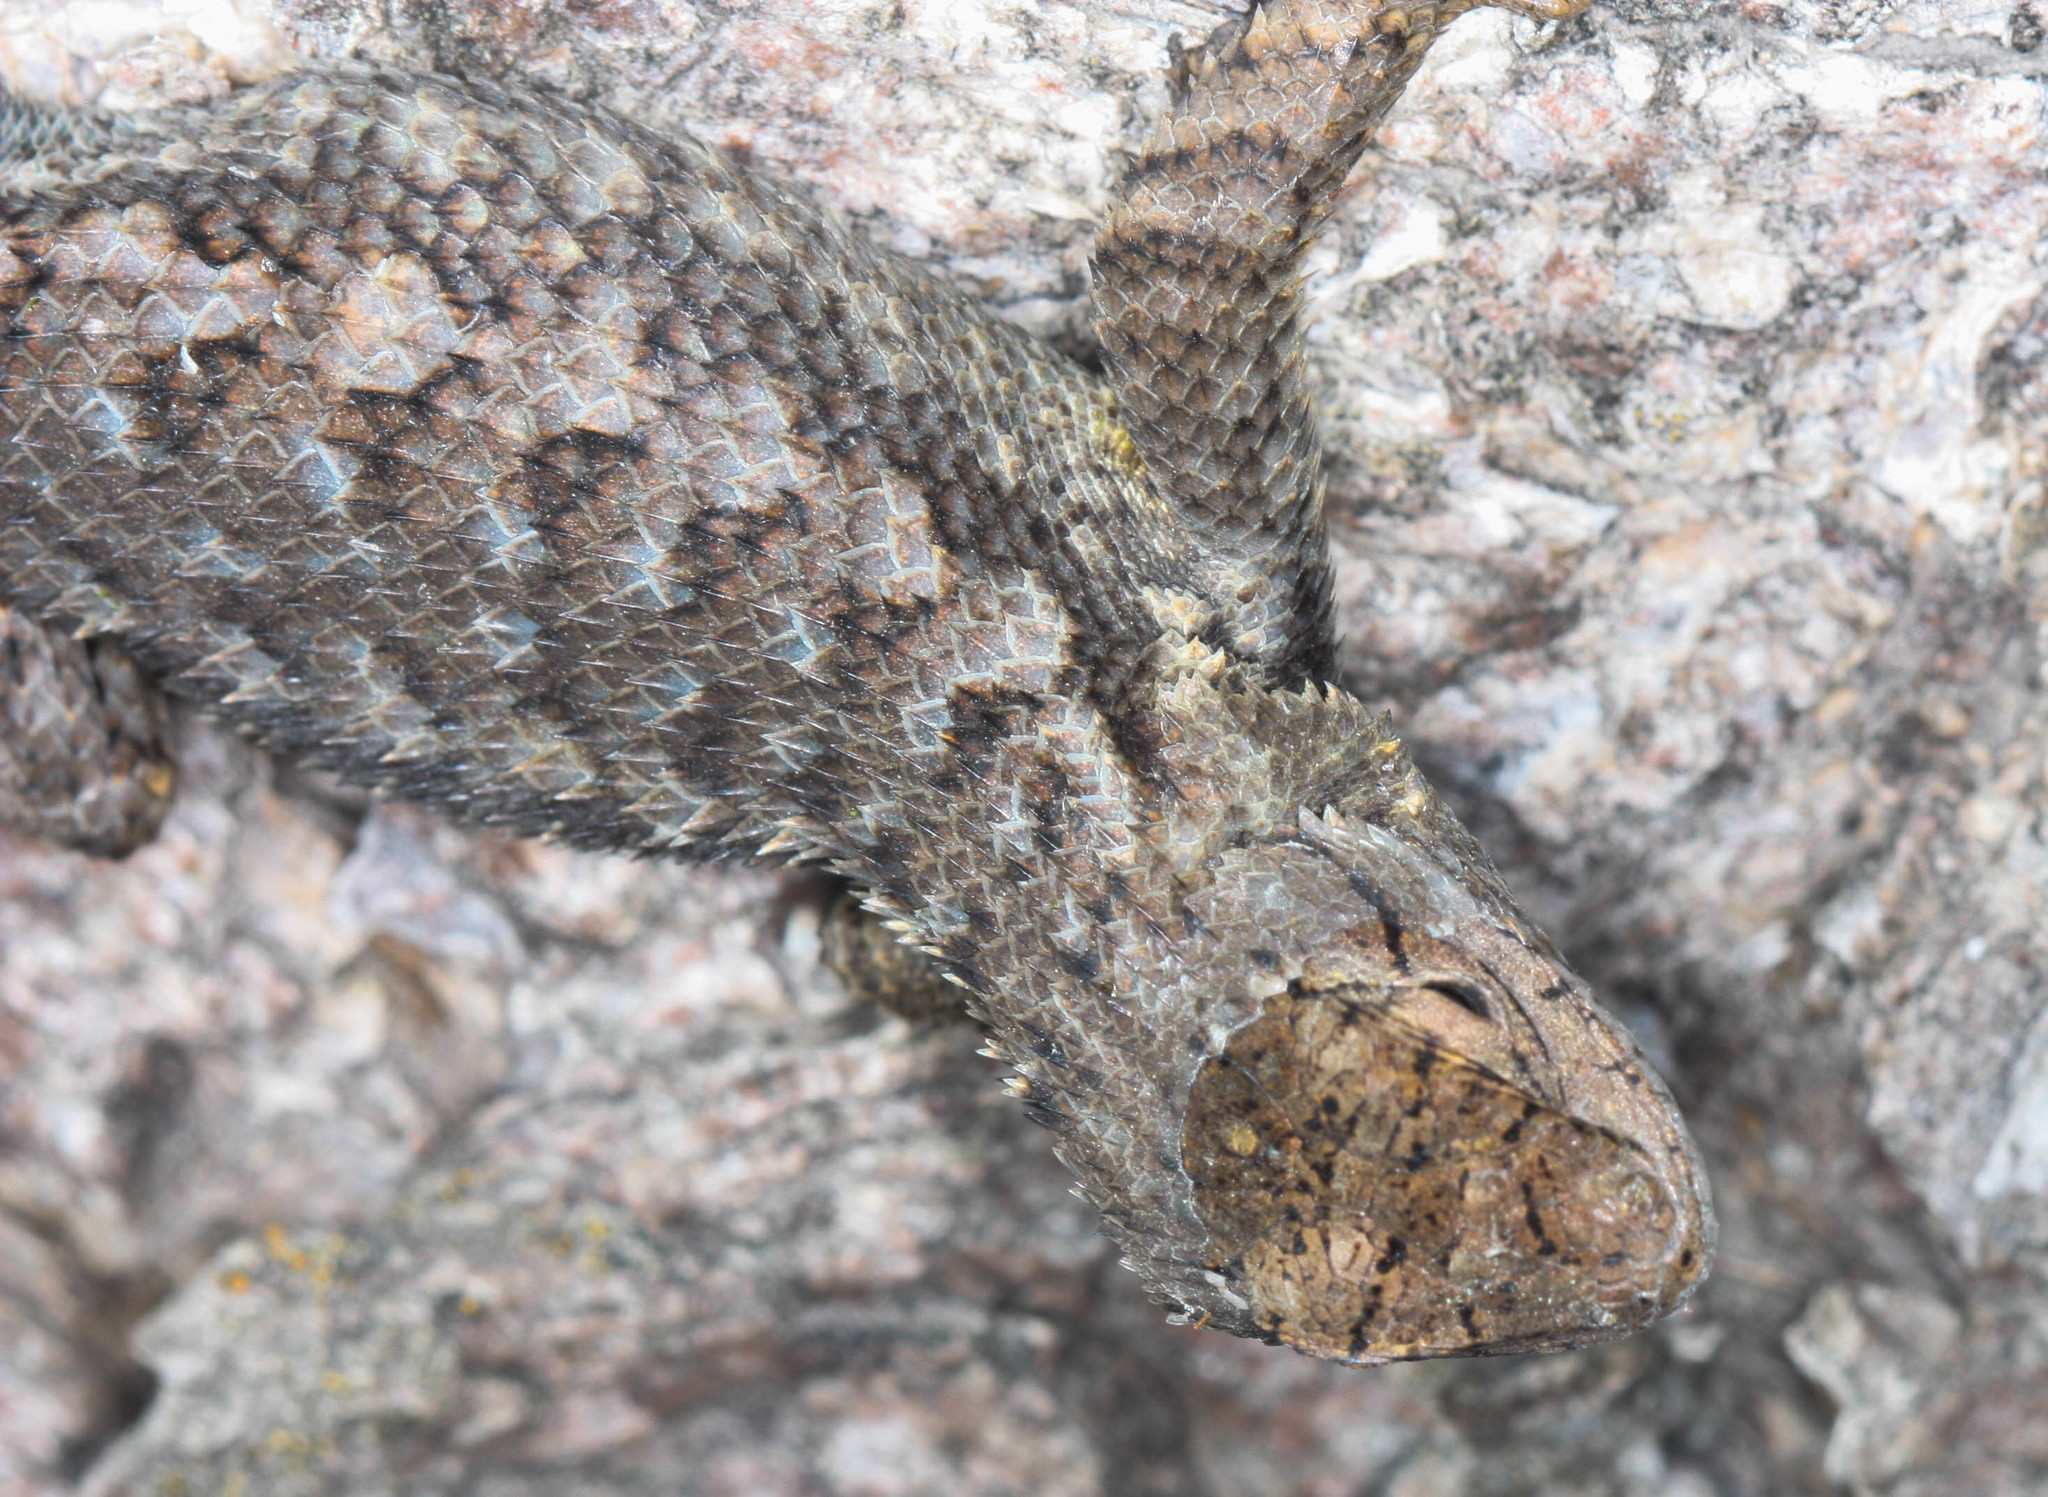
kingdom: Animalia
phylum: Chordata
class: Squamata
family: Phrynosomatidae
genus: Sceloporus
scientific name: Sceloporus occidentalis
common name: Western fence lizard
